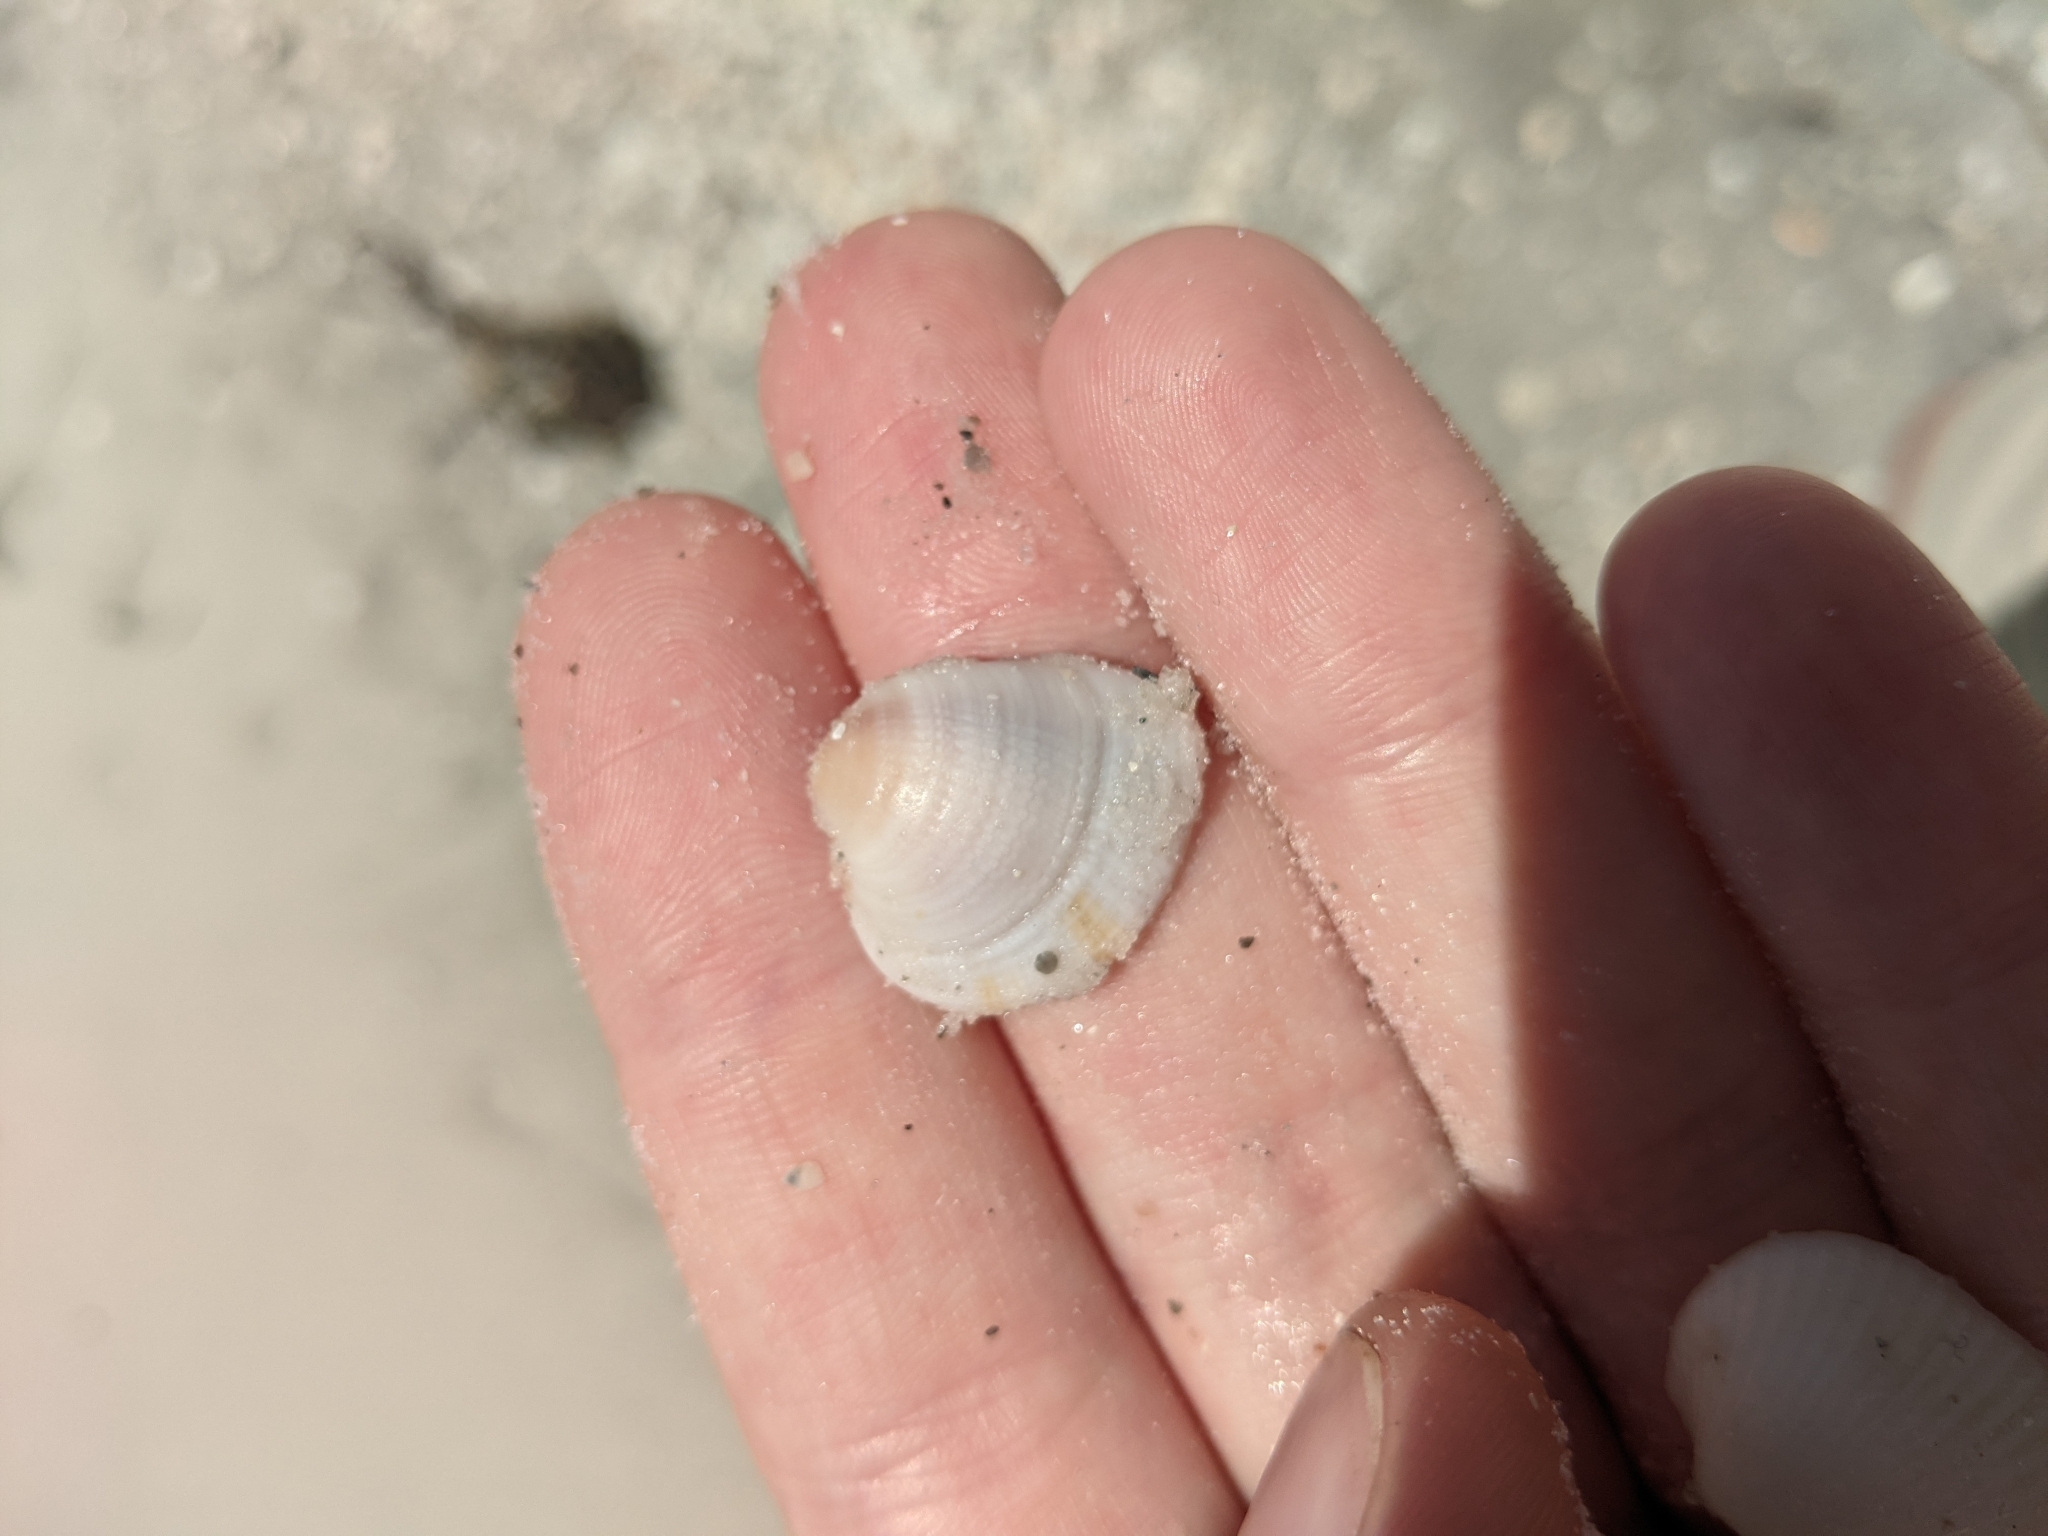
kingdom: Animalia
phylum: Mollusca
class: Bivalvia
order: Venerida
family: Veneridae
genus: Chione
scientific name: Chione elevata
